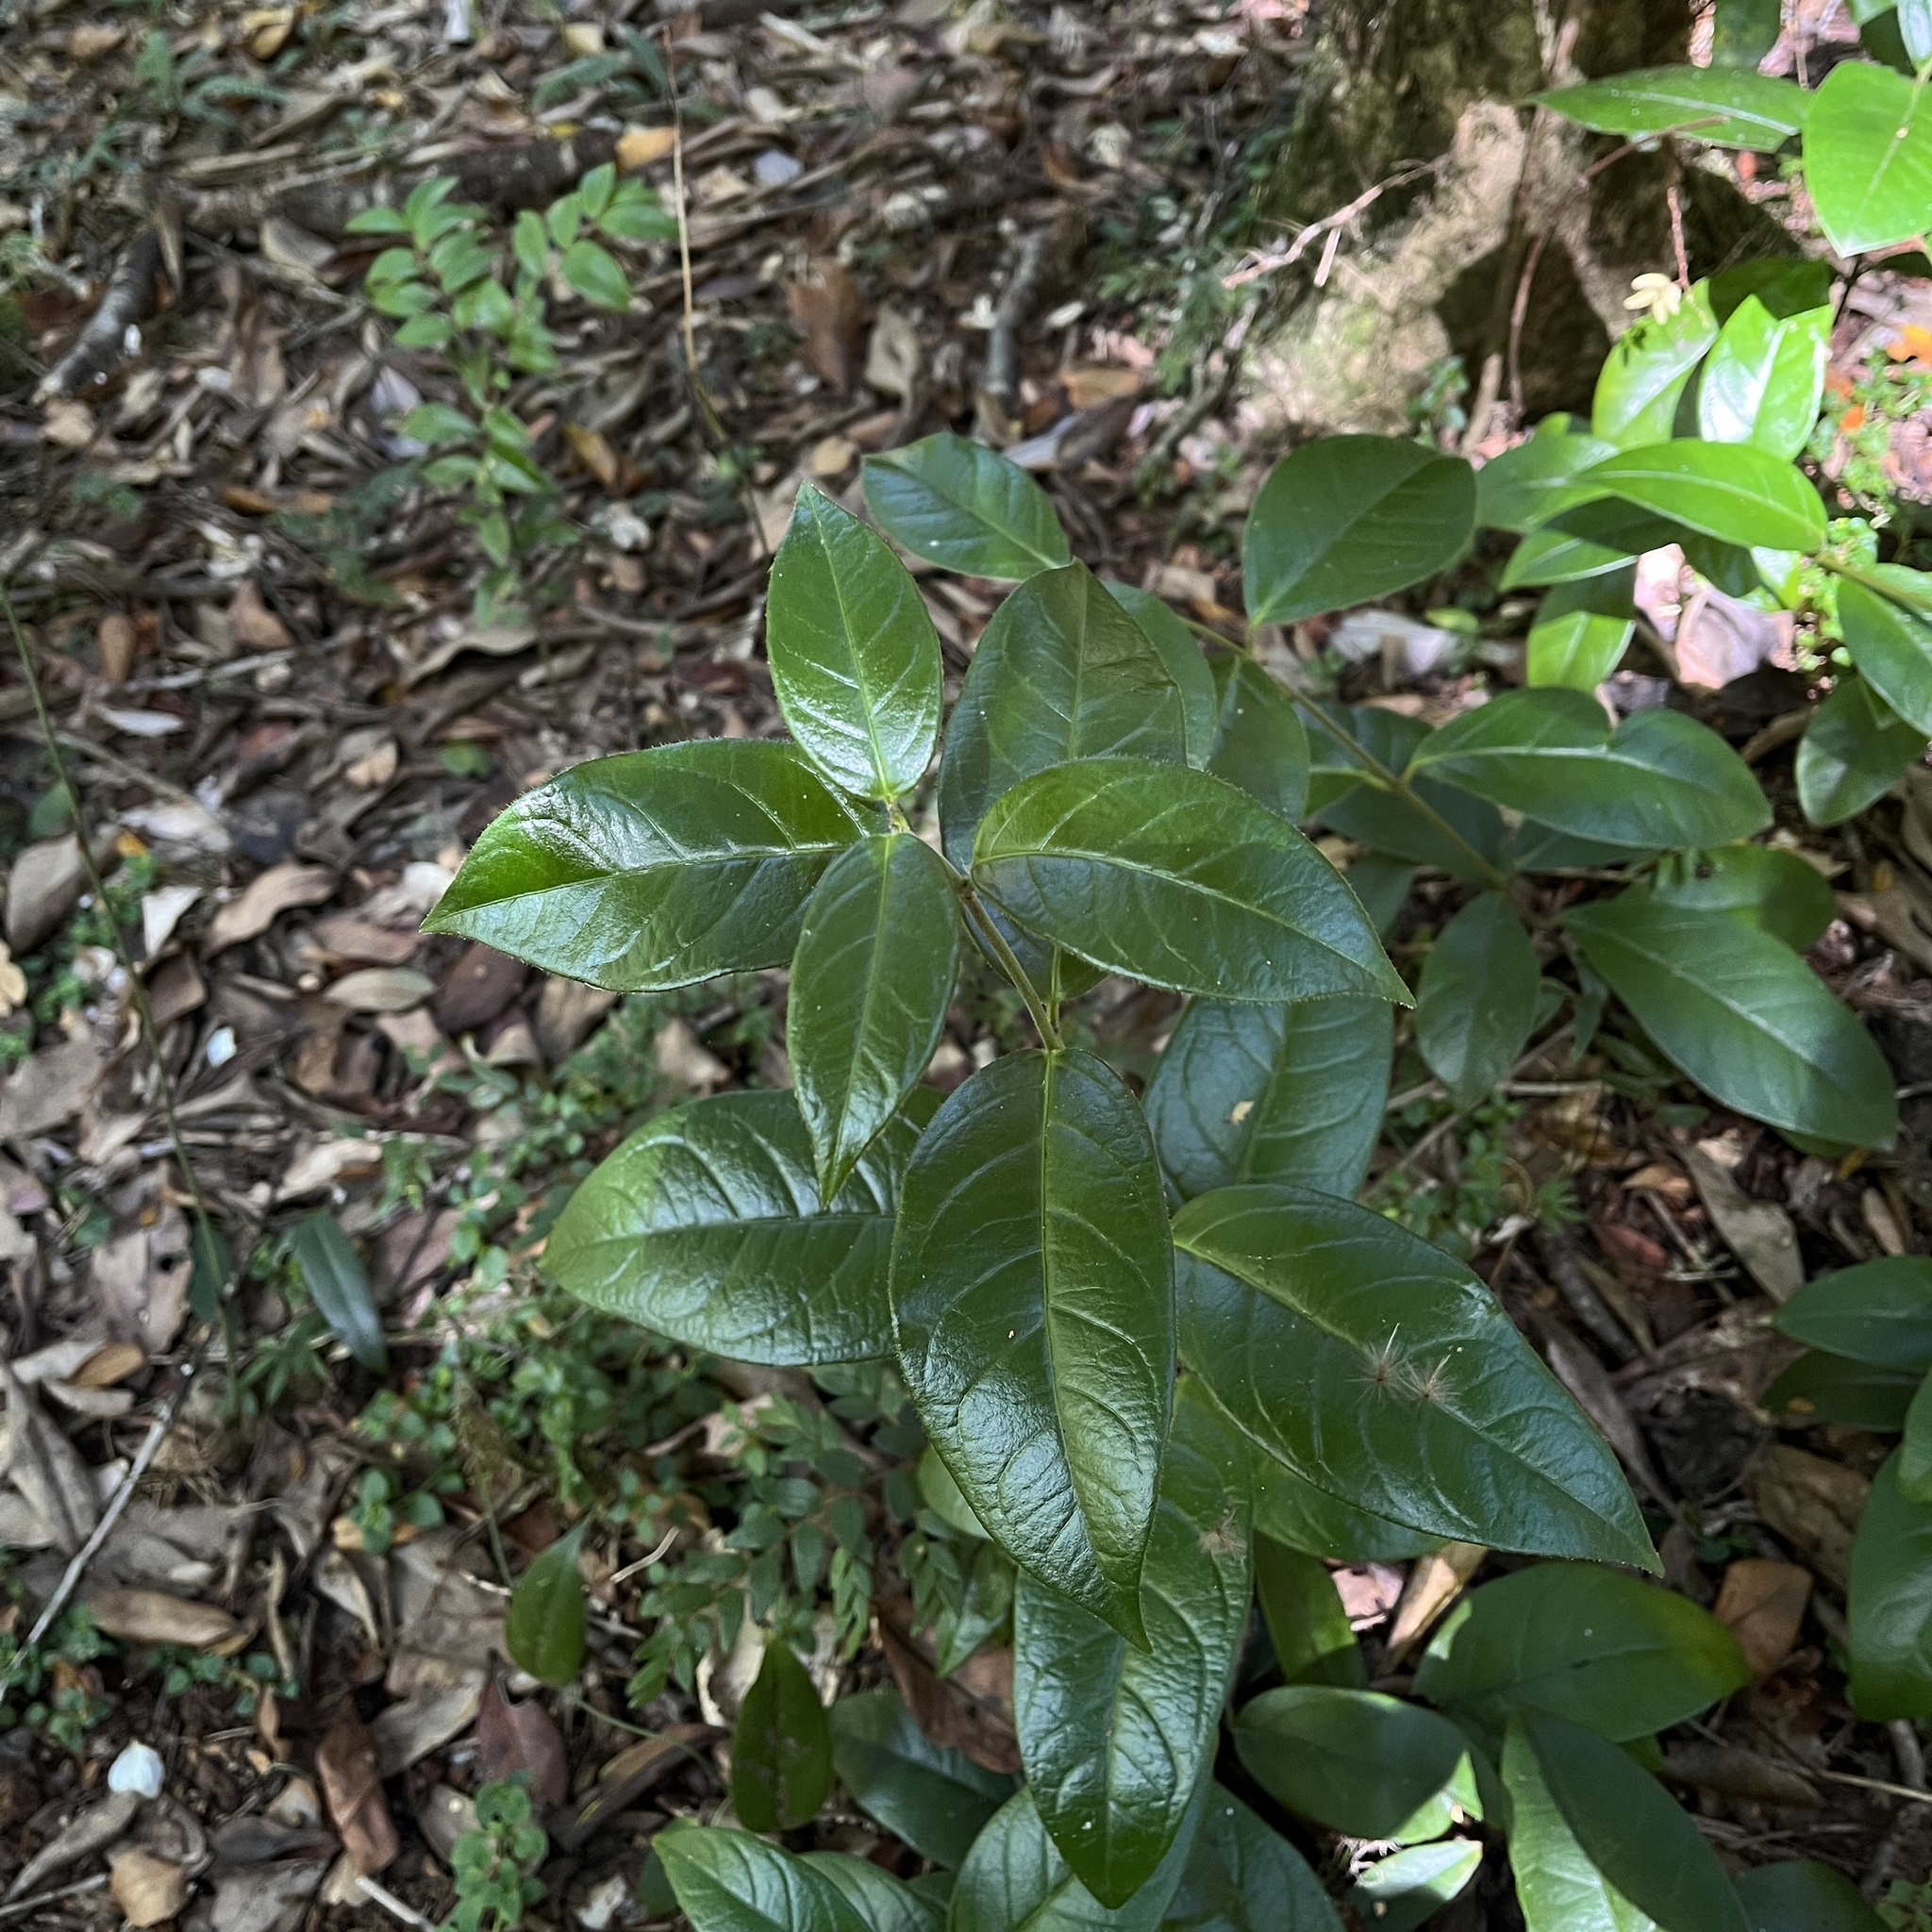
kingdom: Plantae
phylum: Tracheophyta
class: Magnoliopsida
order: Gentianales
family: Apocynaceae
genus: Mandevilla
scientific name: Mandevilla pubescens
